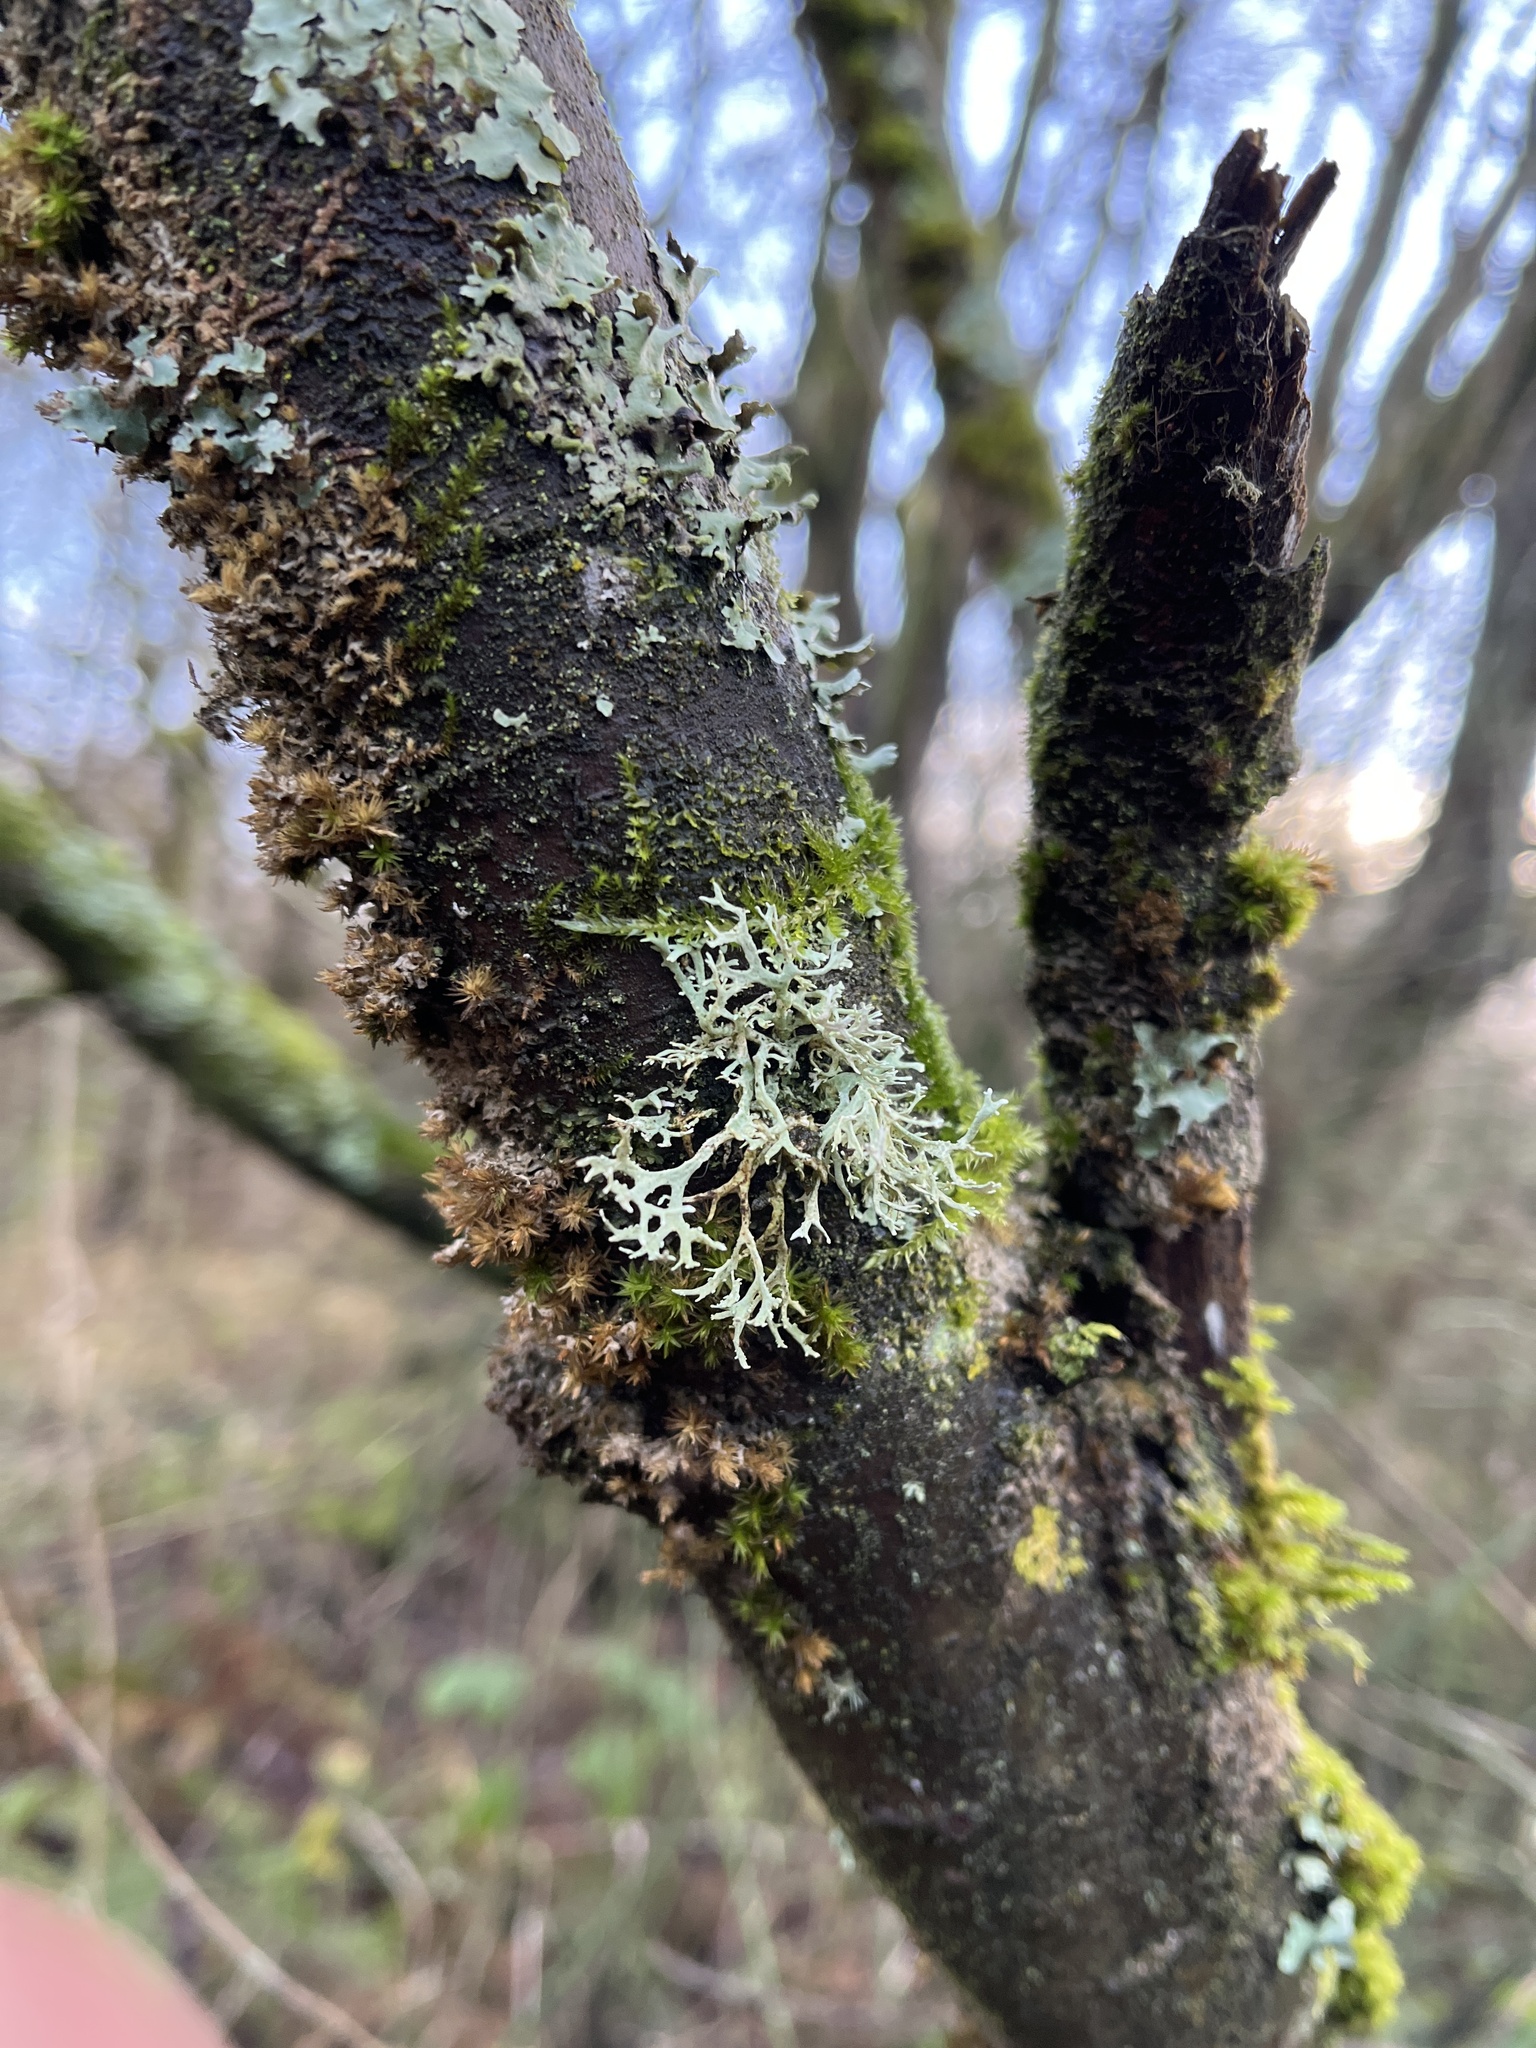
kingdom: Fungi
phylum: Ascomycota
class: Lecanoromycetes
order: Lecanorales
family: Parmeliaceae
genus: Evernia
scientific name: Evernia prunastri
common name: Oak moss
